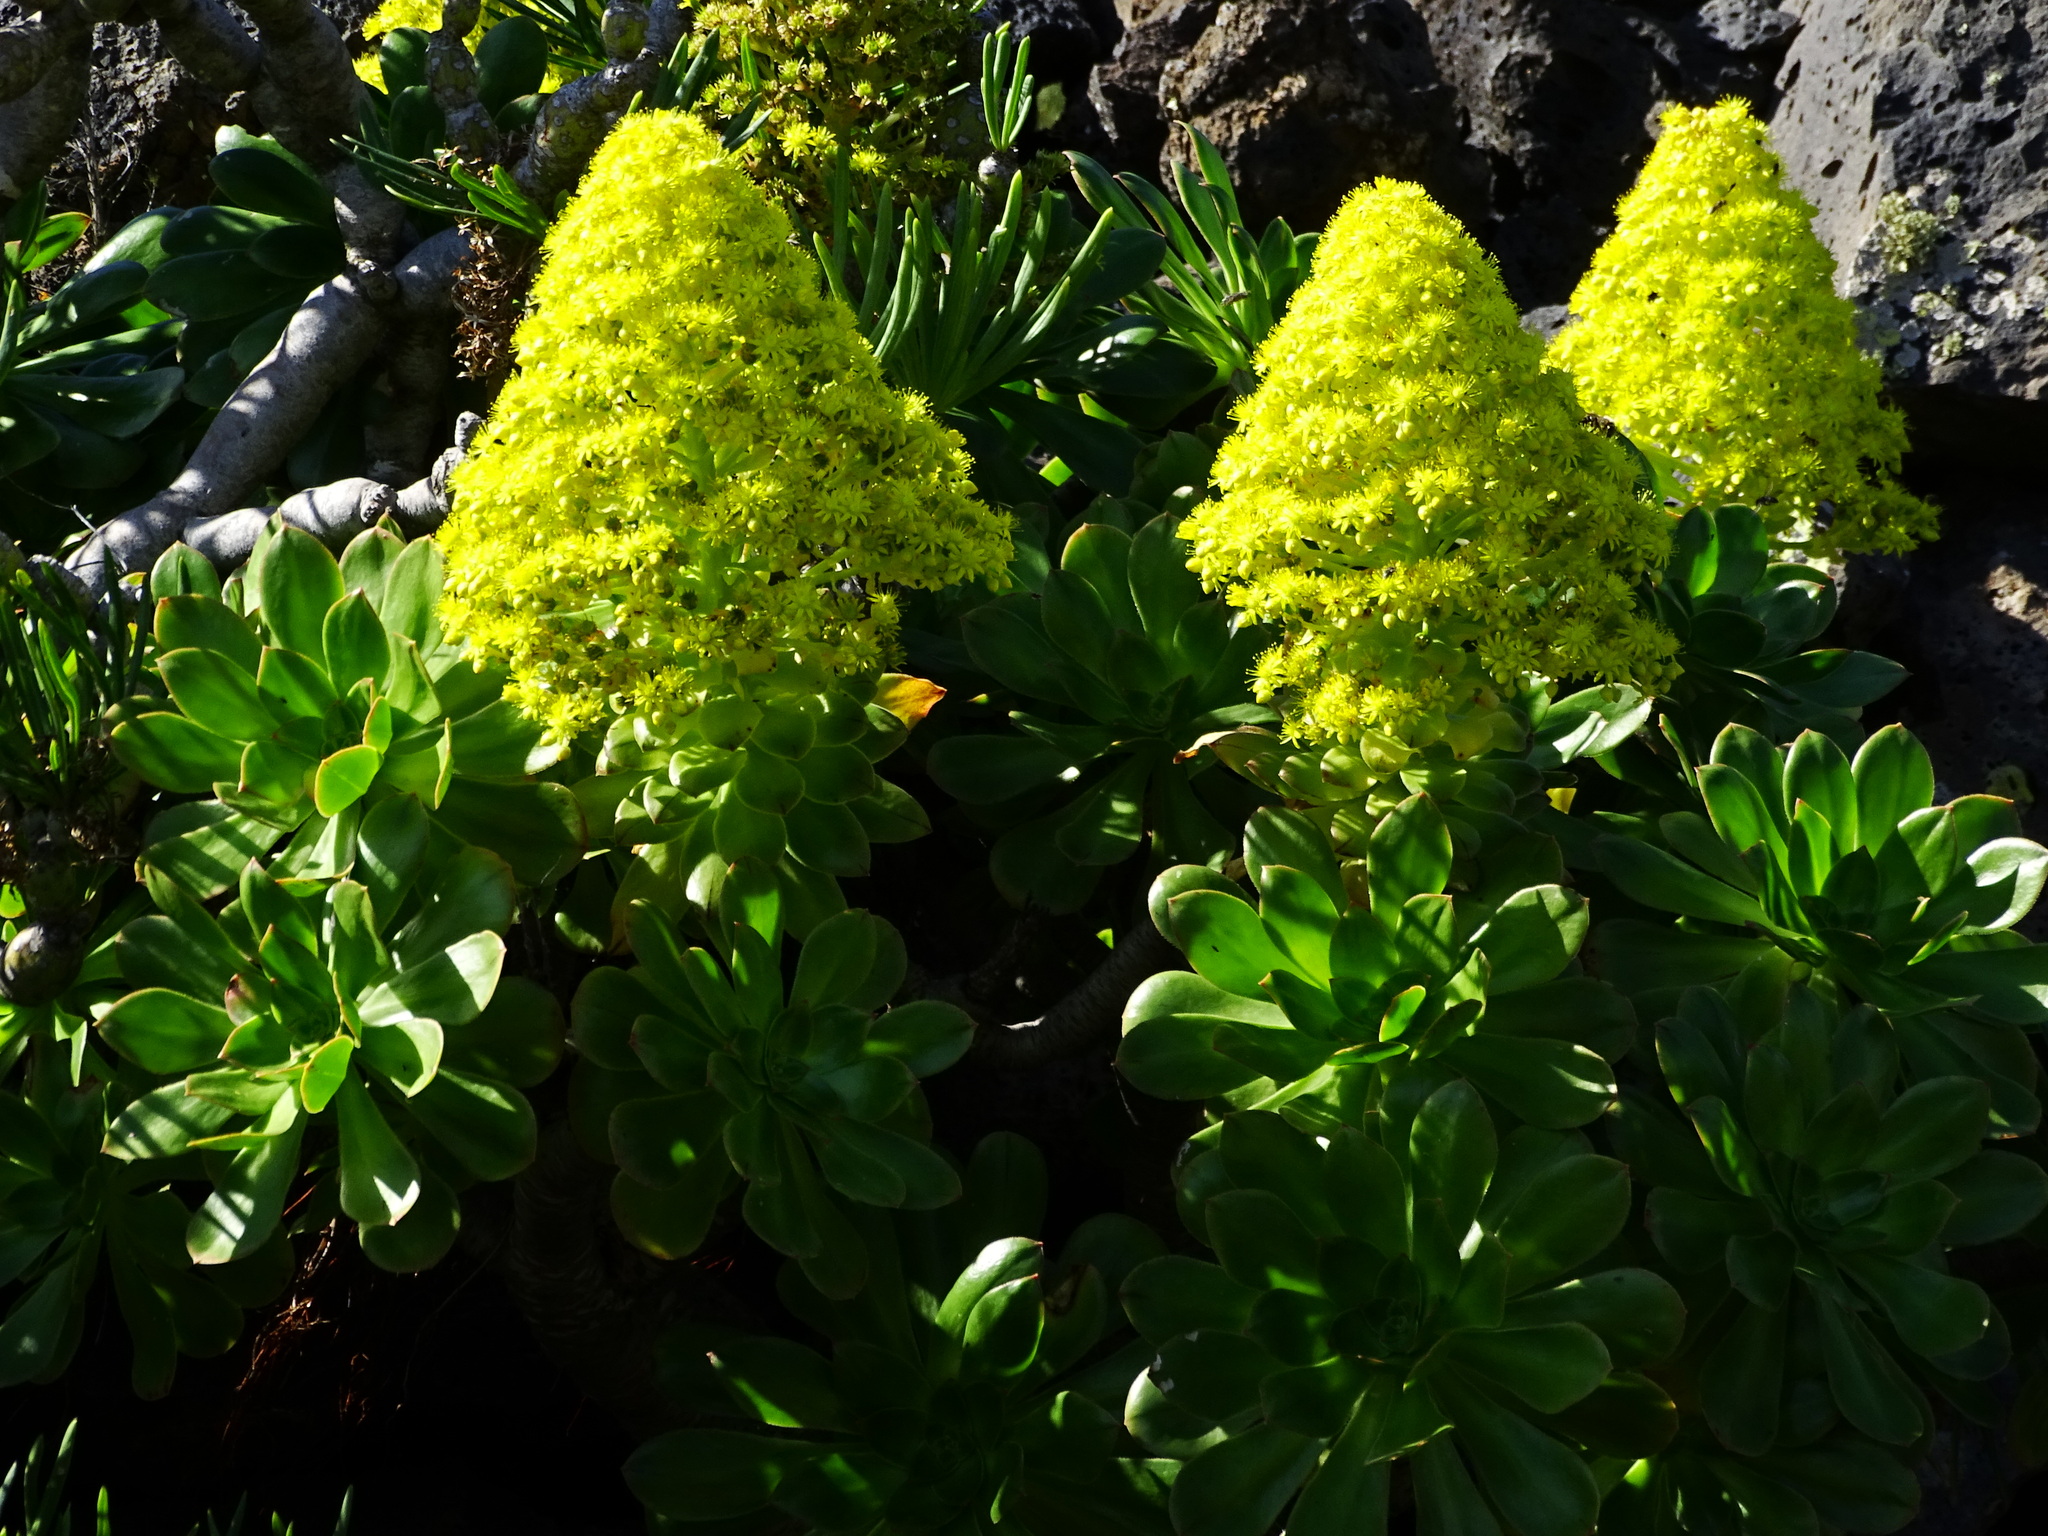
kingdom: Plantae
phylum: Tracheophyta
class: Magnoliopsida
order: Saxifragales
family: Crassulaceae
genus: Aeonium
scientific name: Aeonium arboreum
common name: Tree aeonium
